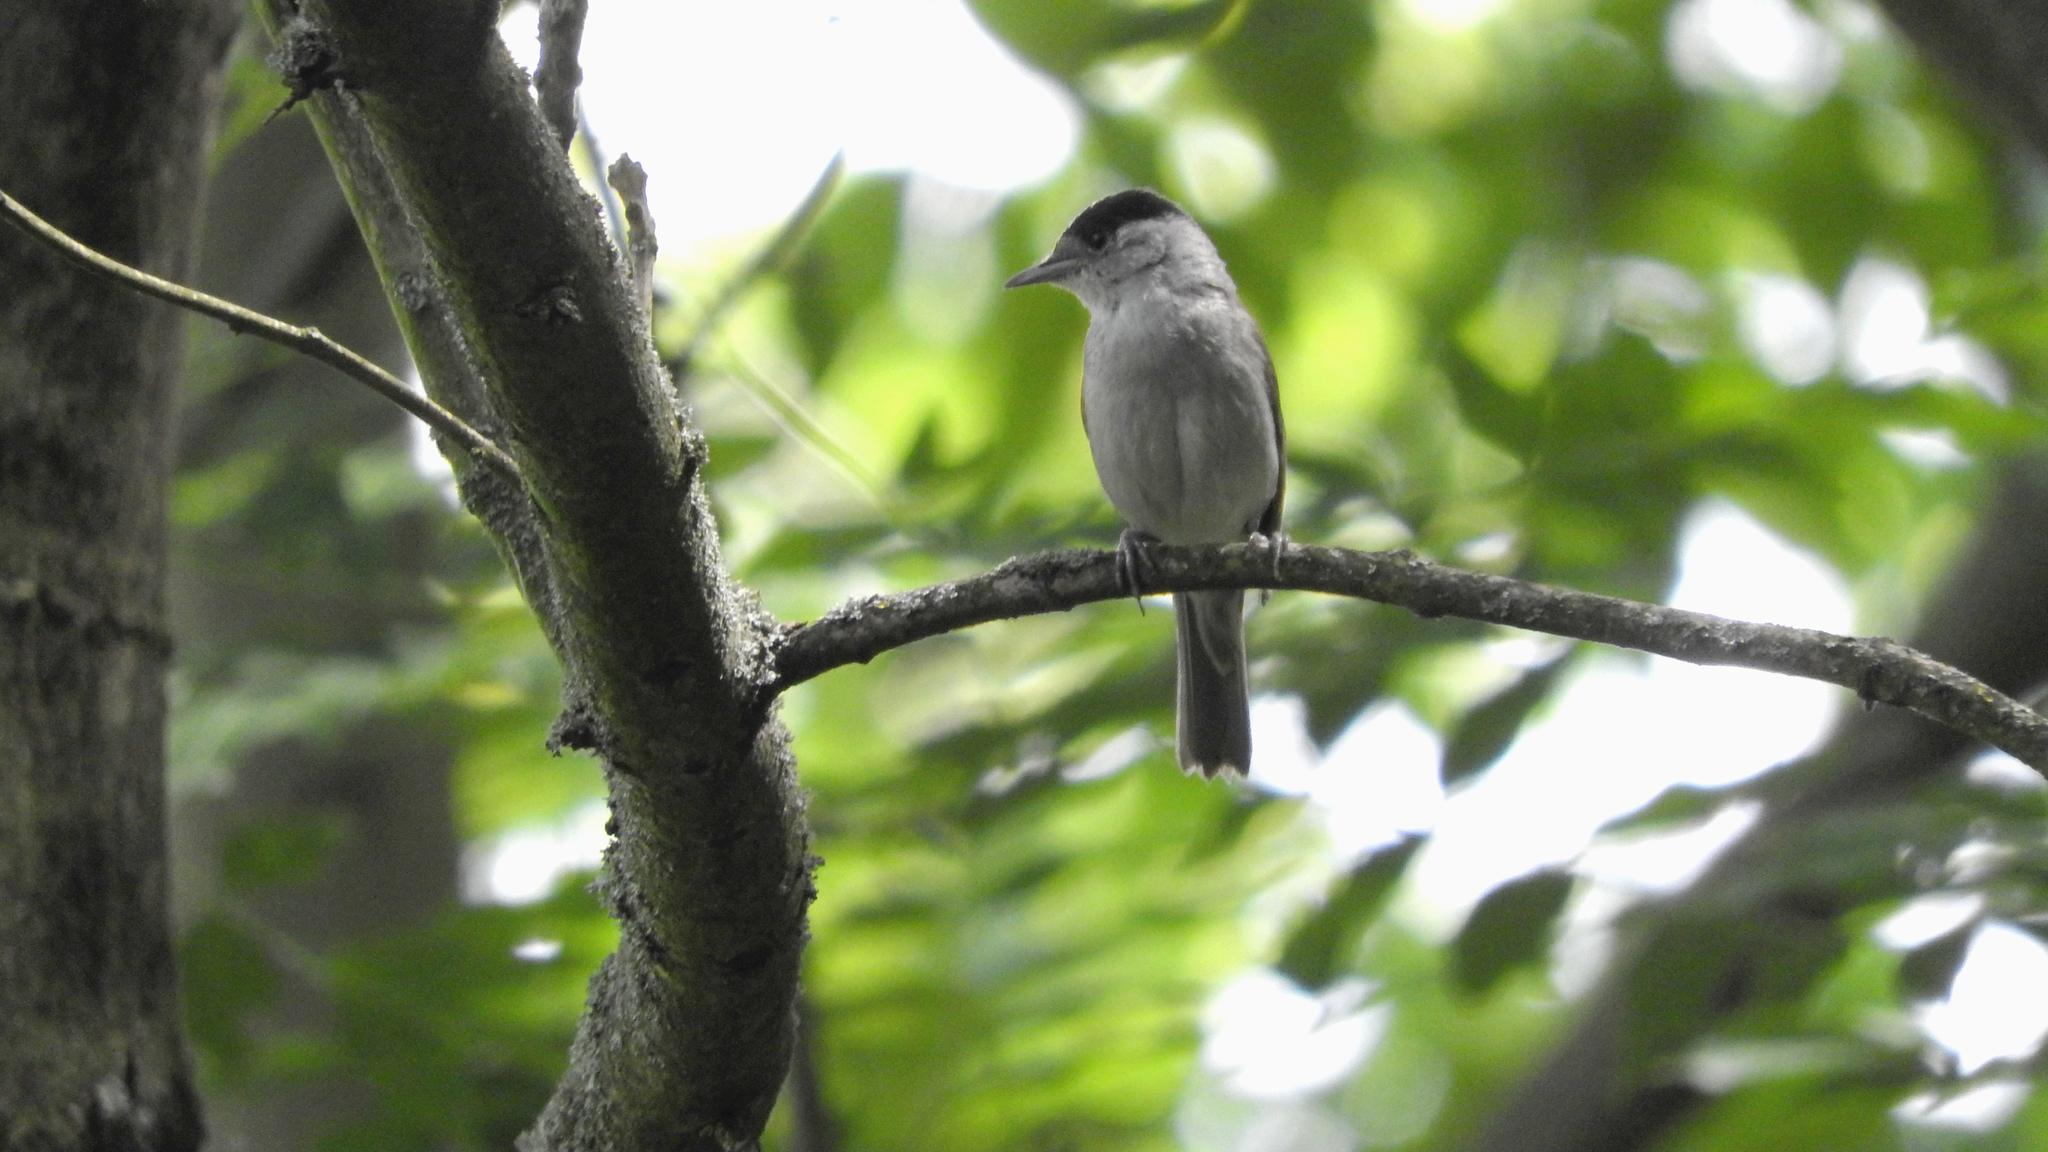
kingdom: Animalia
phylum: Chordata
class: Aves
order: Passeriformes
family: Sylviidae
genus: Sylvia
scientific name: Sylvia atricapilla
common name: Eurasian blackcap
